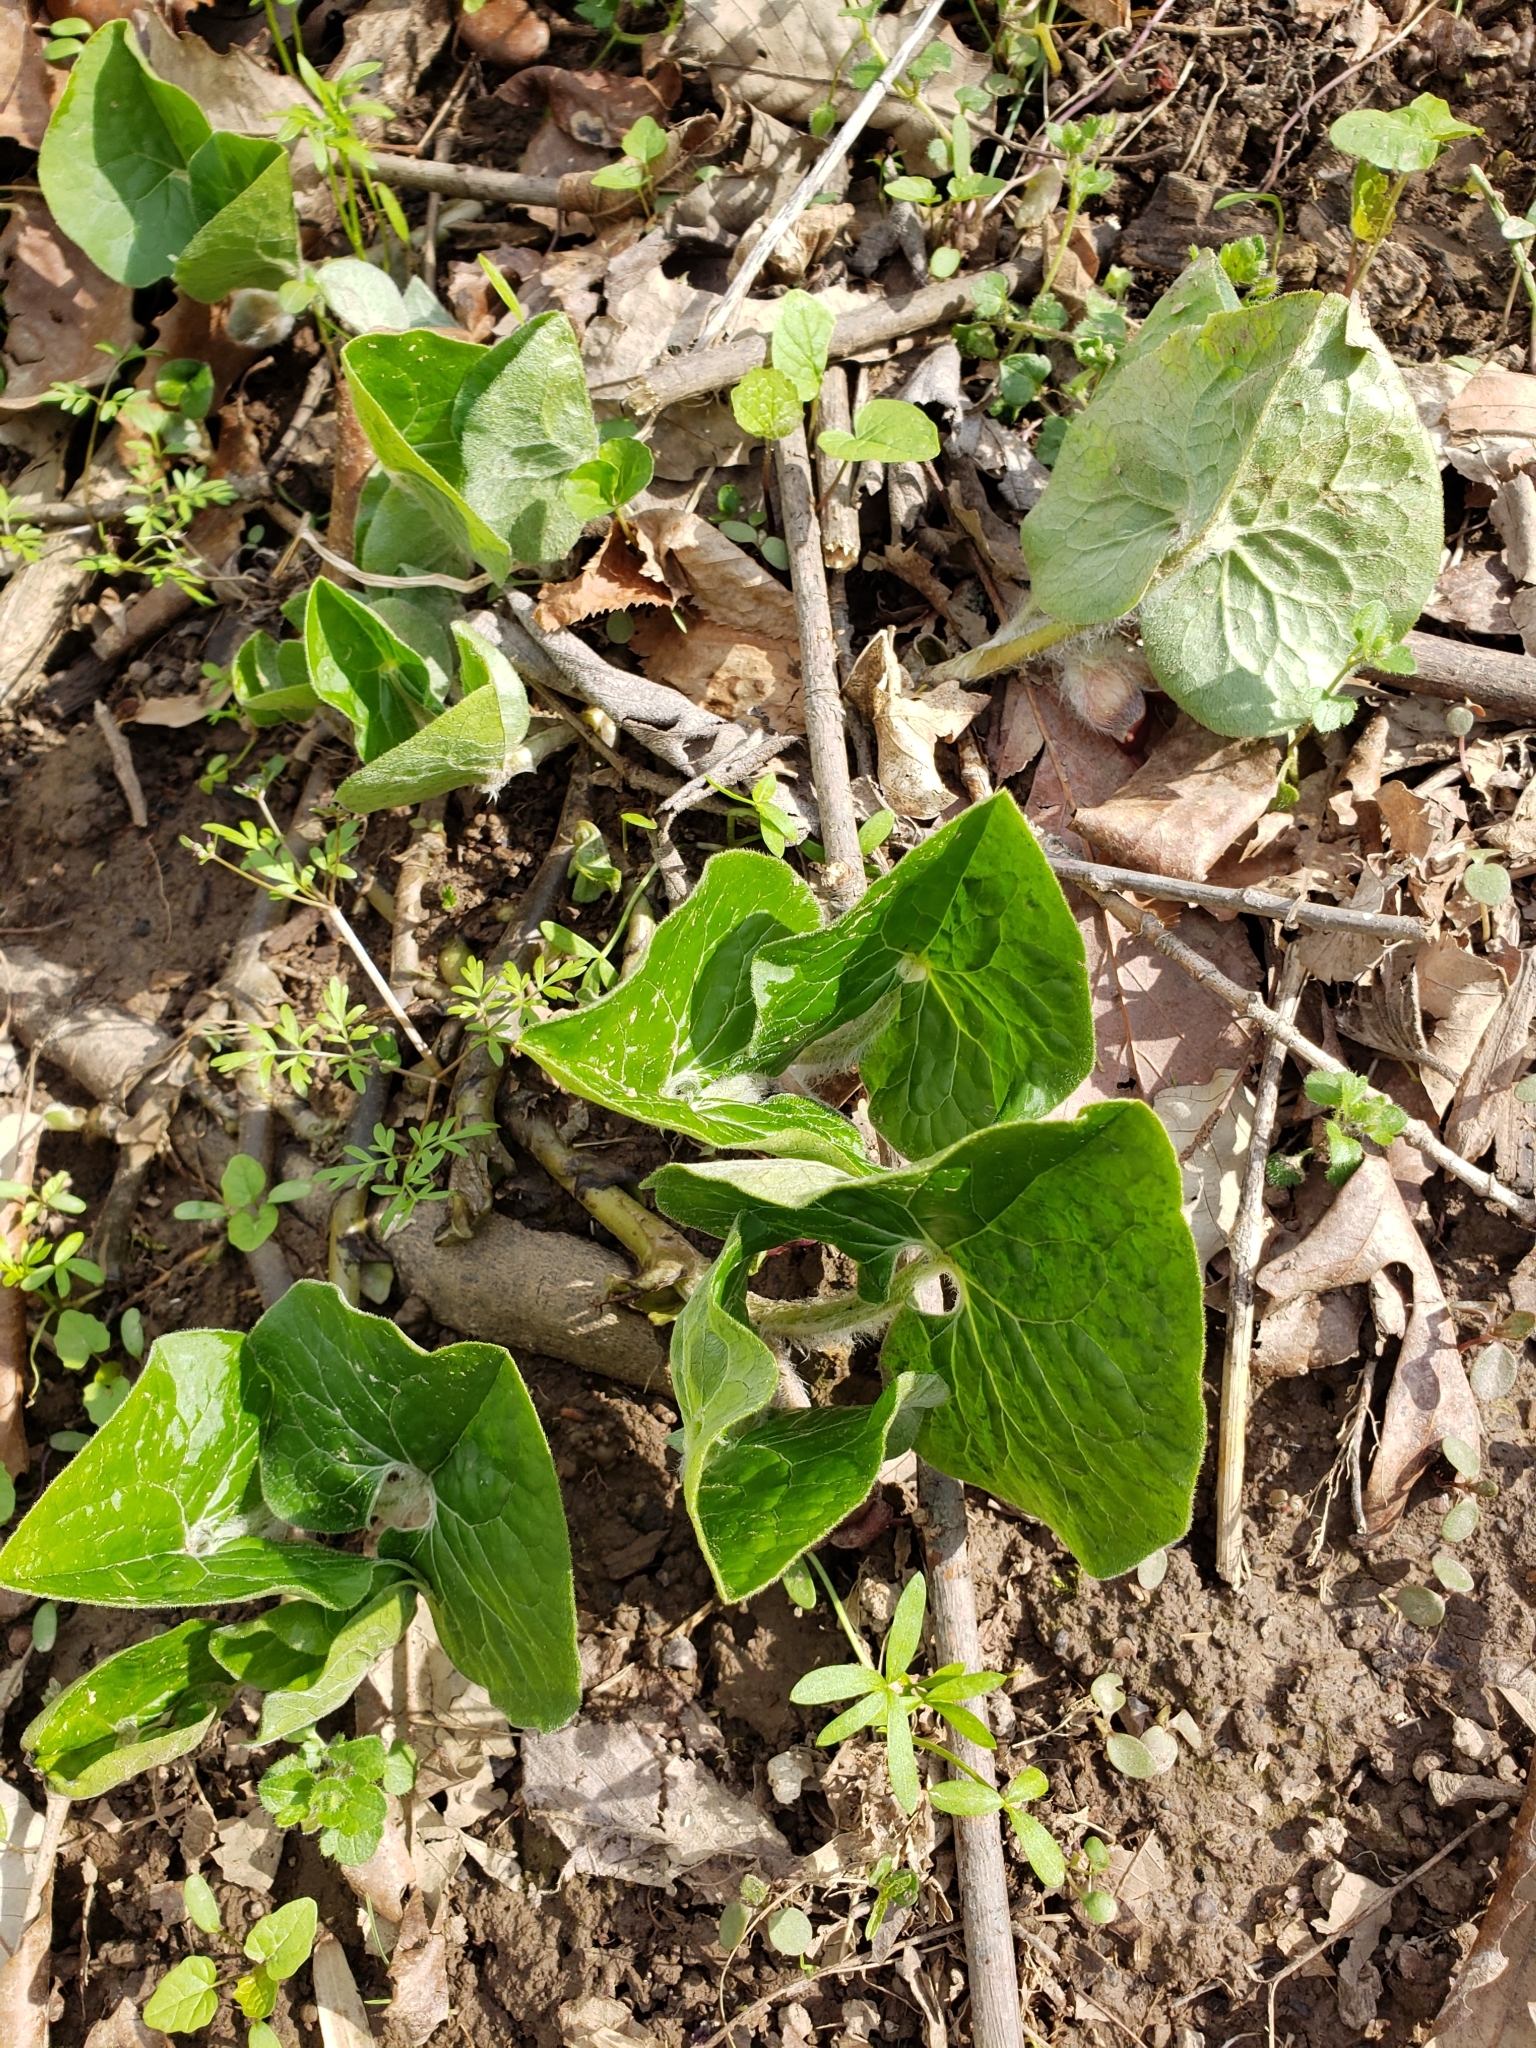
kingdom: Plantae
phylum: Tracheophyta
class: Magnoliopsida
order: Piperales
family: Aristolochiaceae
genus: Asarum
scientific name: Asarum canadense
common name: Wild ginger
